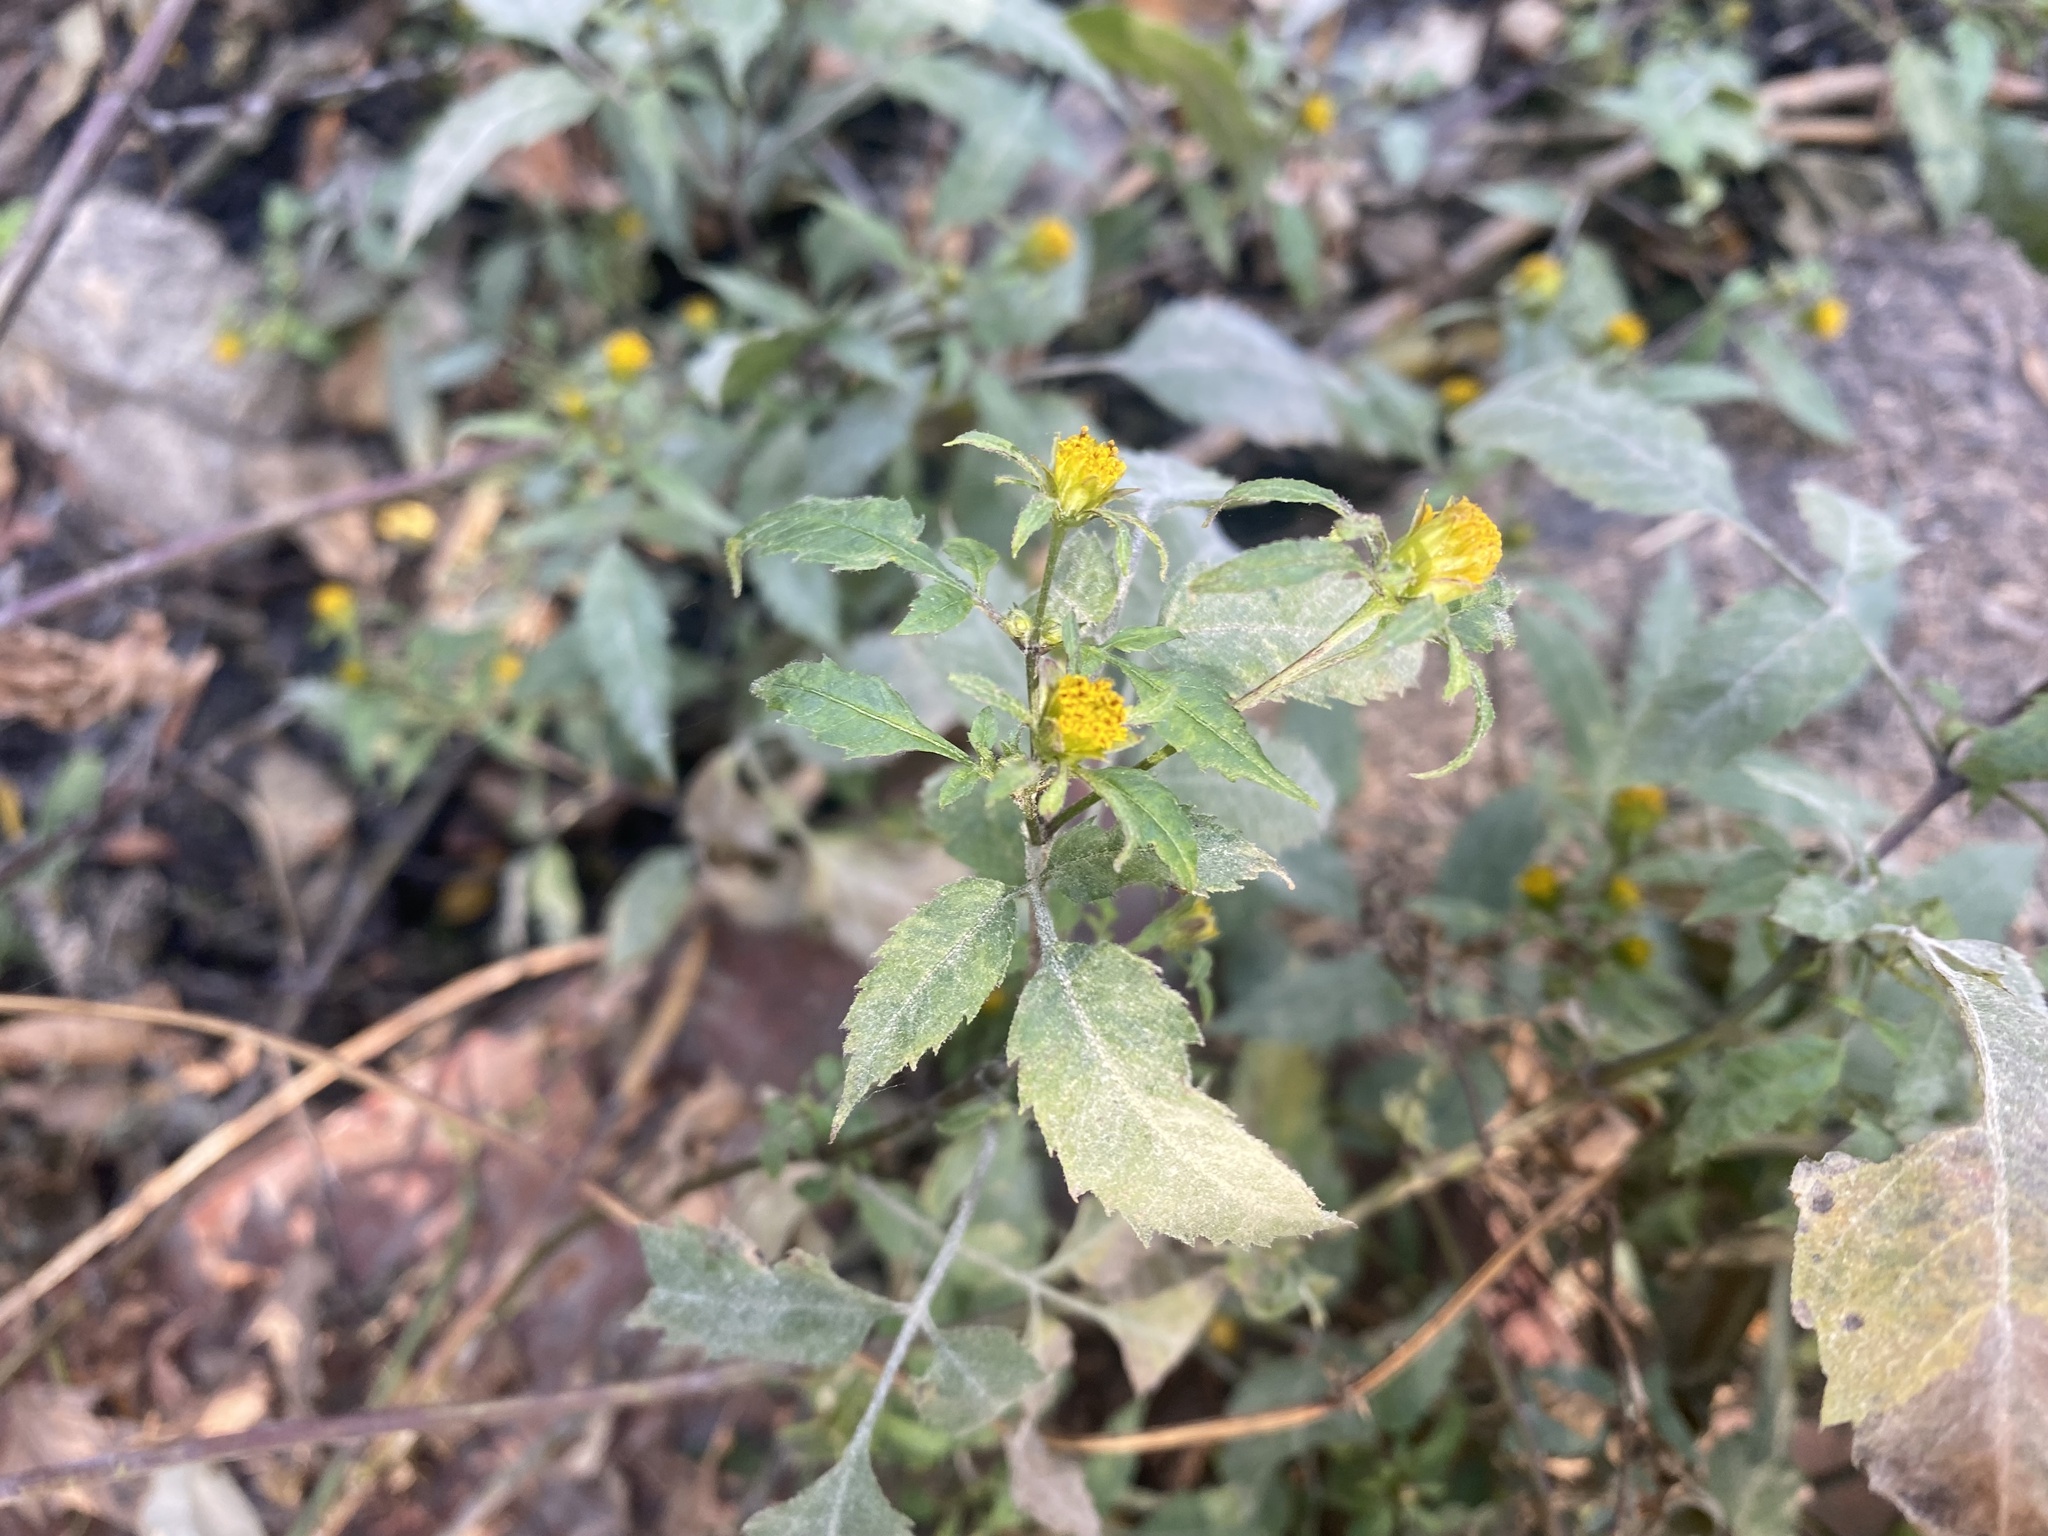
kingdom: Plantae
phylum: Tracheophyta
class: Magnoliopsida
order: Asterales
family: Asteraceae
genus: Bidens
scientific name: Bidens frondosa
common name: Beggarticks
